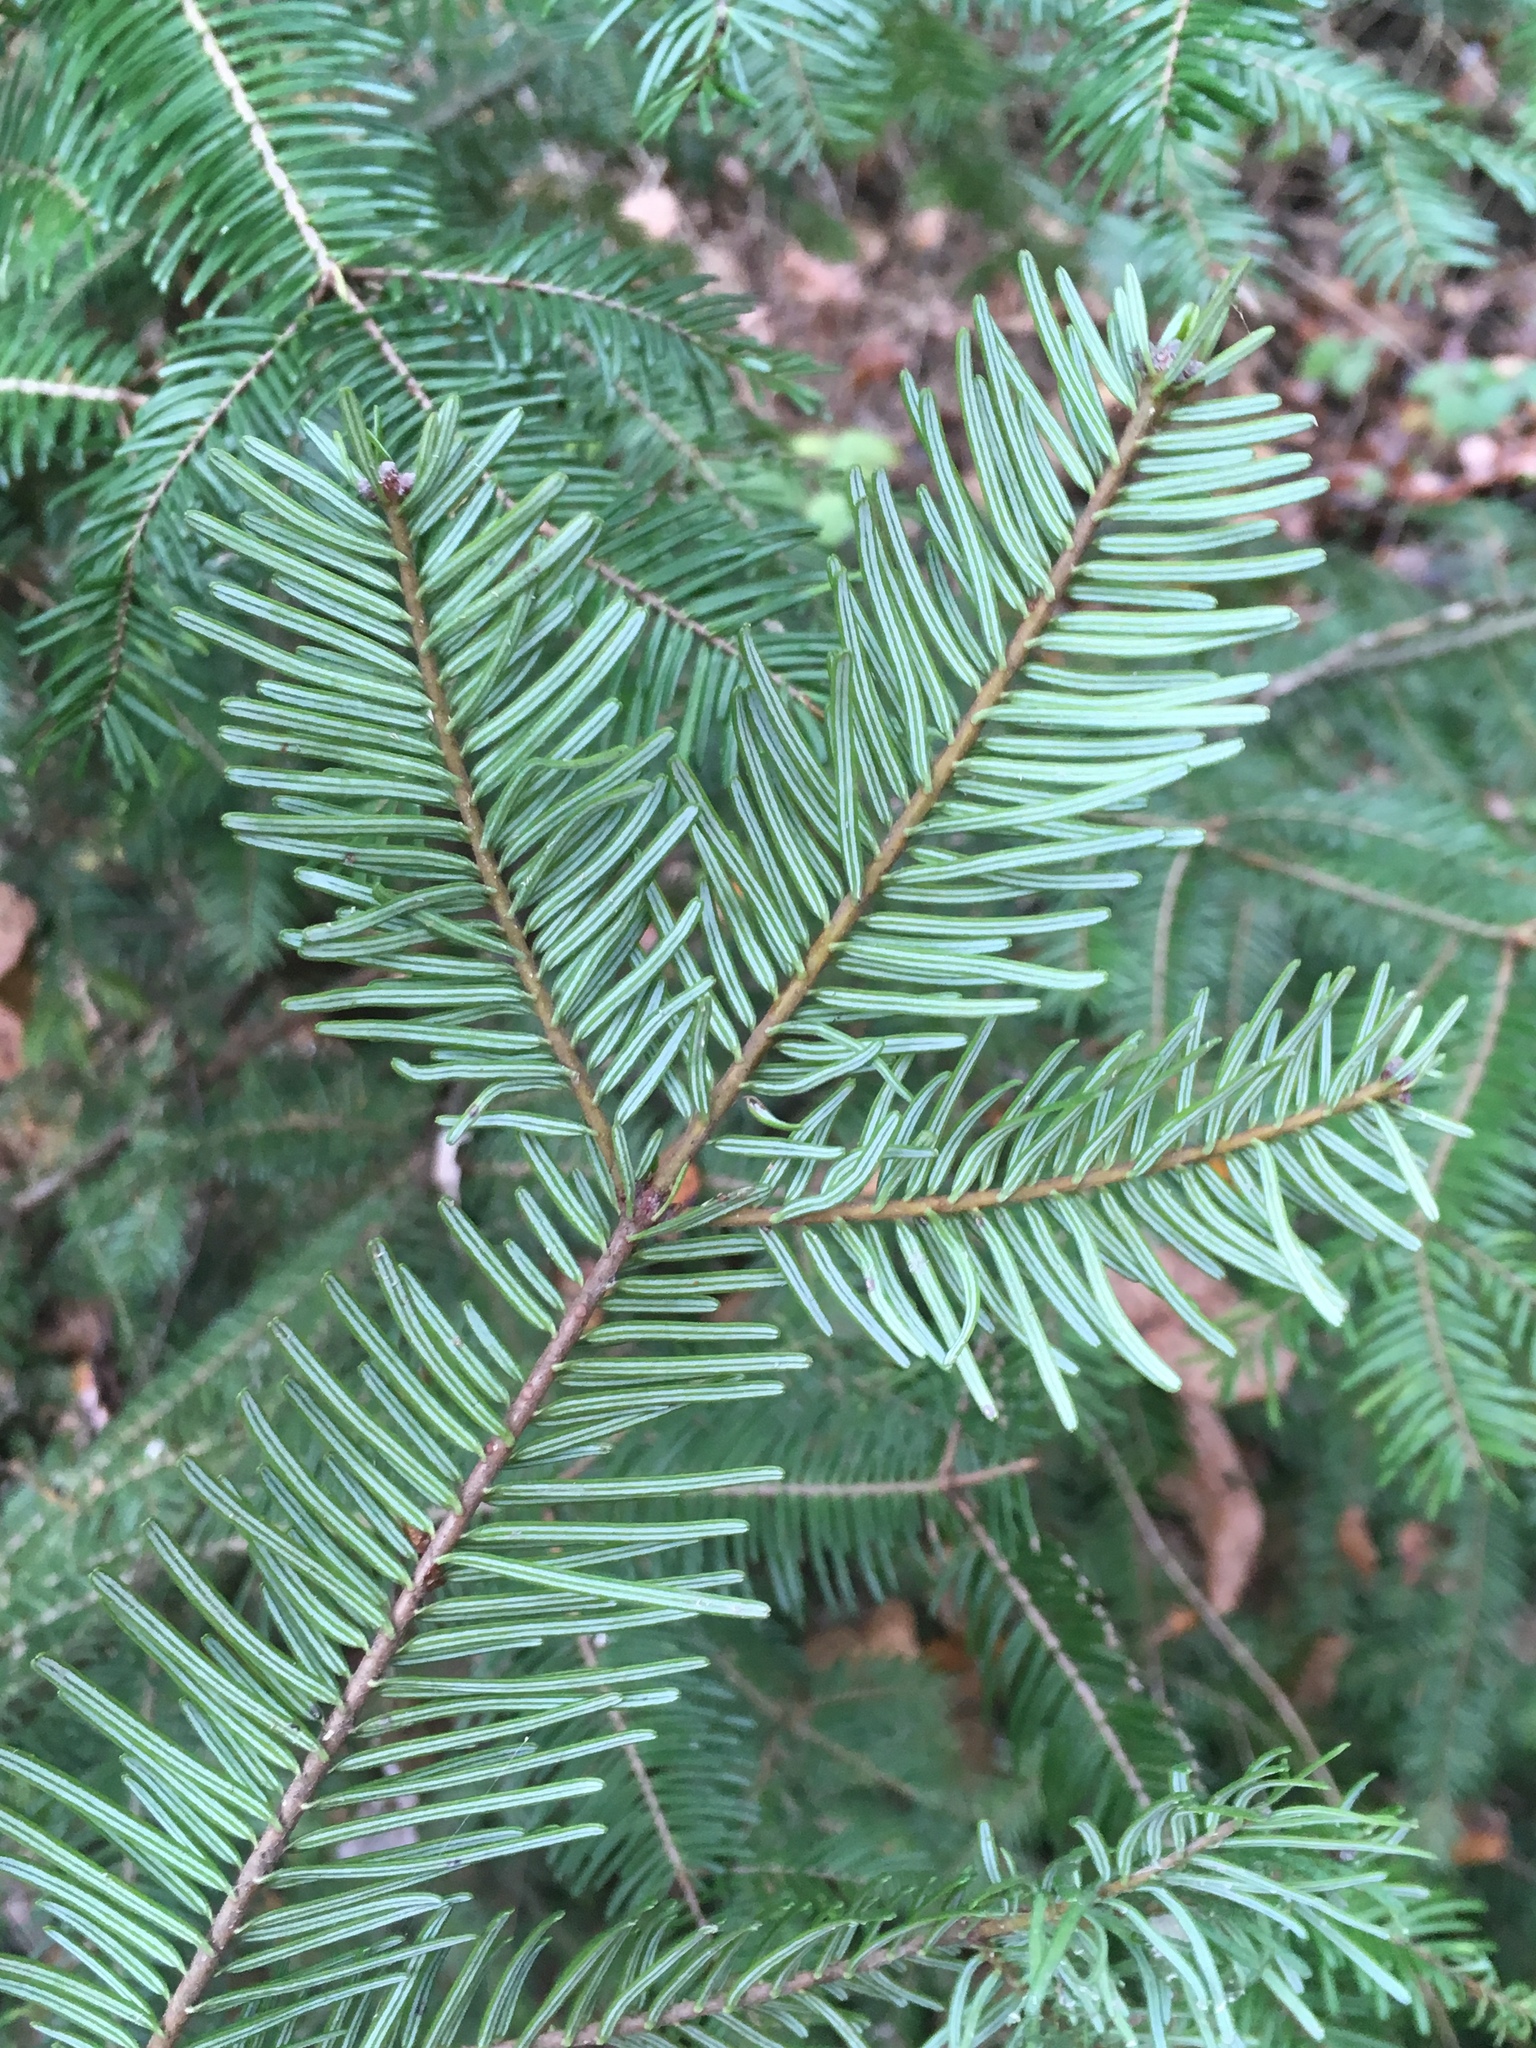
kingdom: Plantae
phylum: Tracheophyta
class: Pinopsida
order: Pinales
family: Pinaceae
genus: Abies
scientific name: Abies grandis
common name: Giant fir
